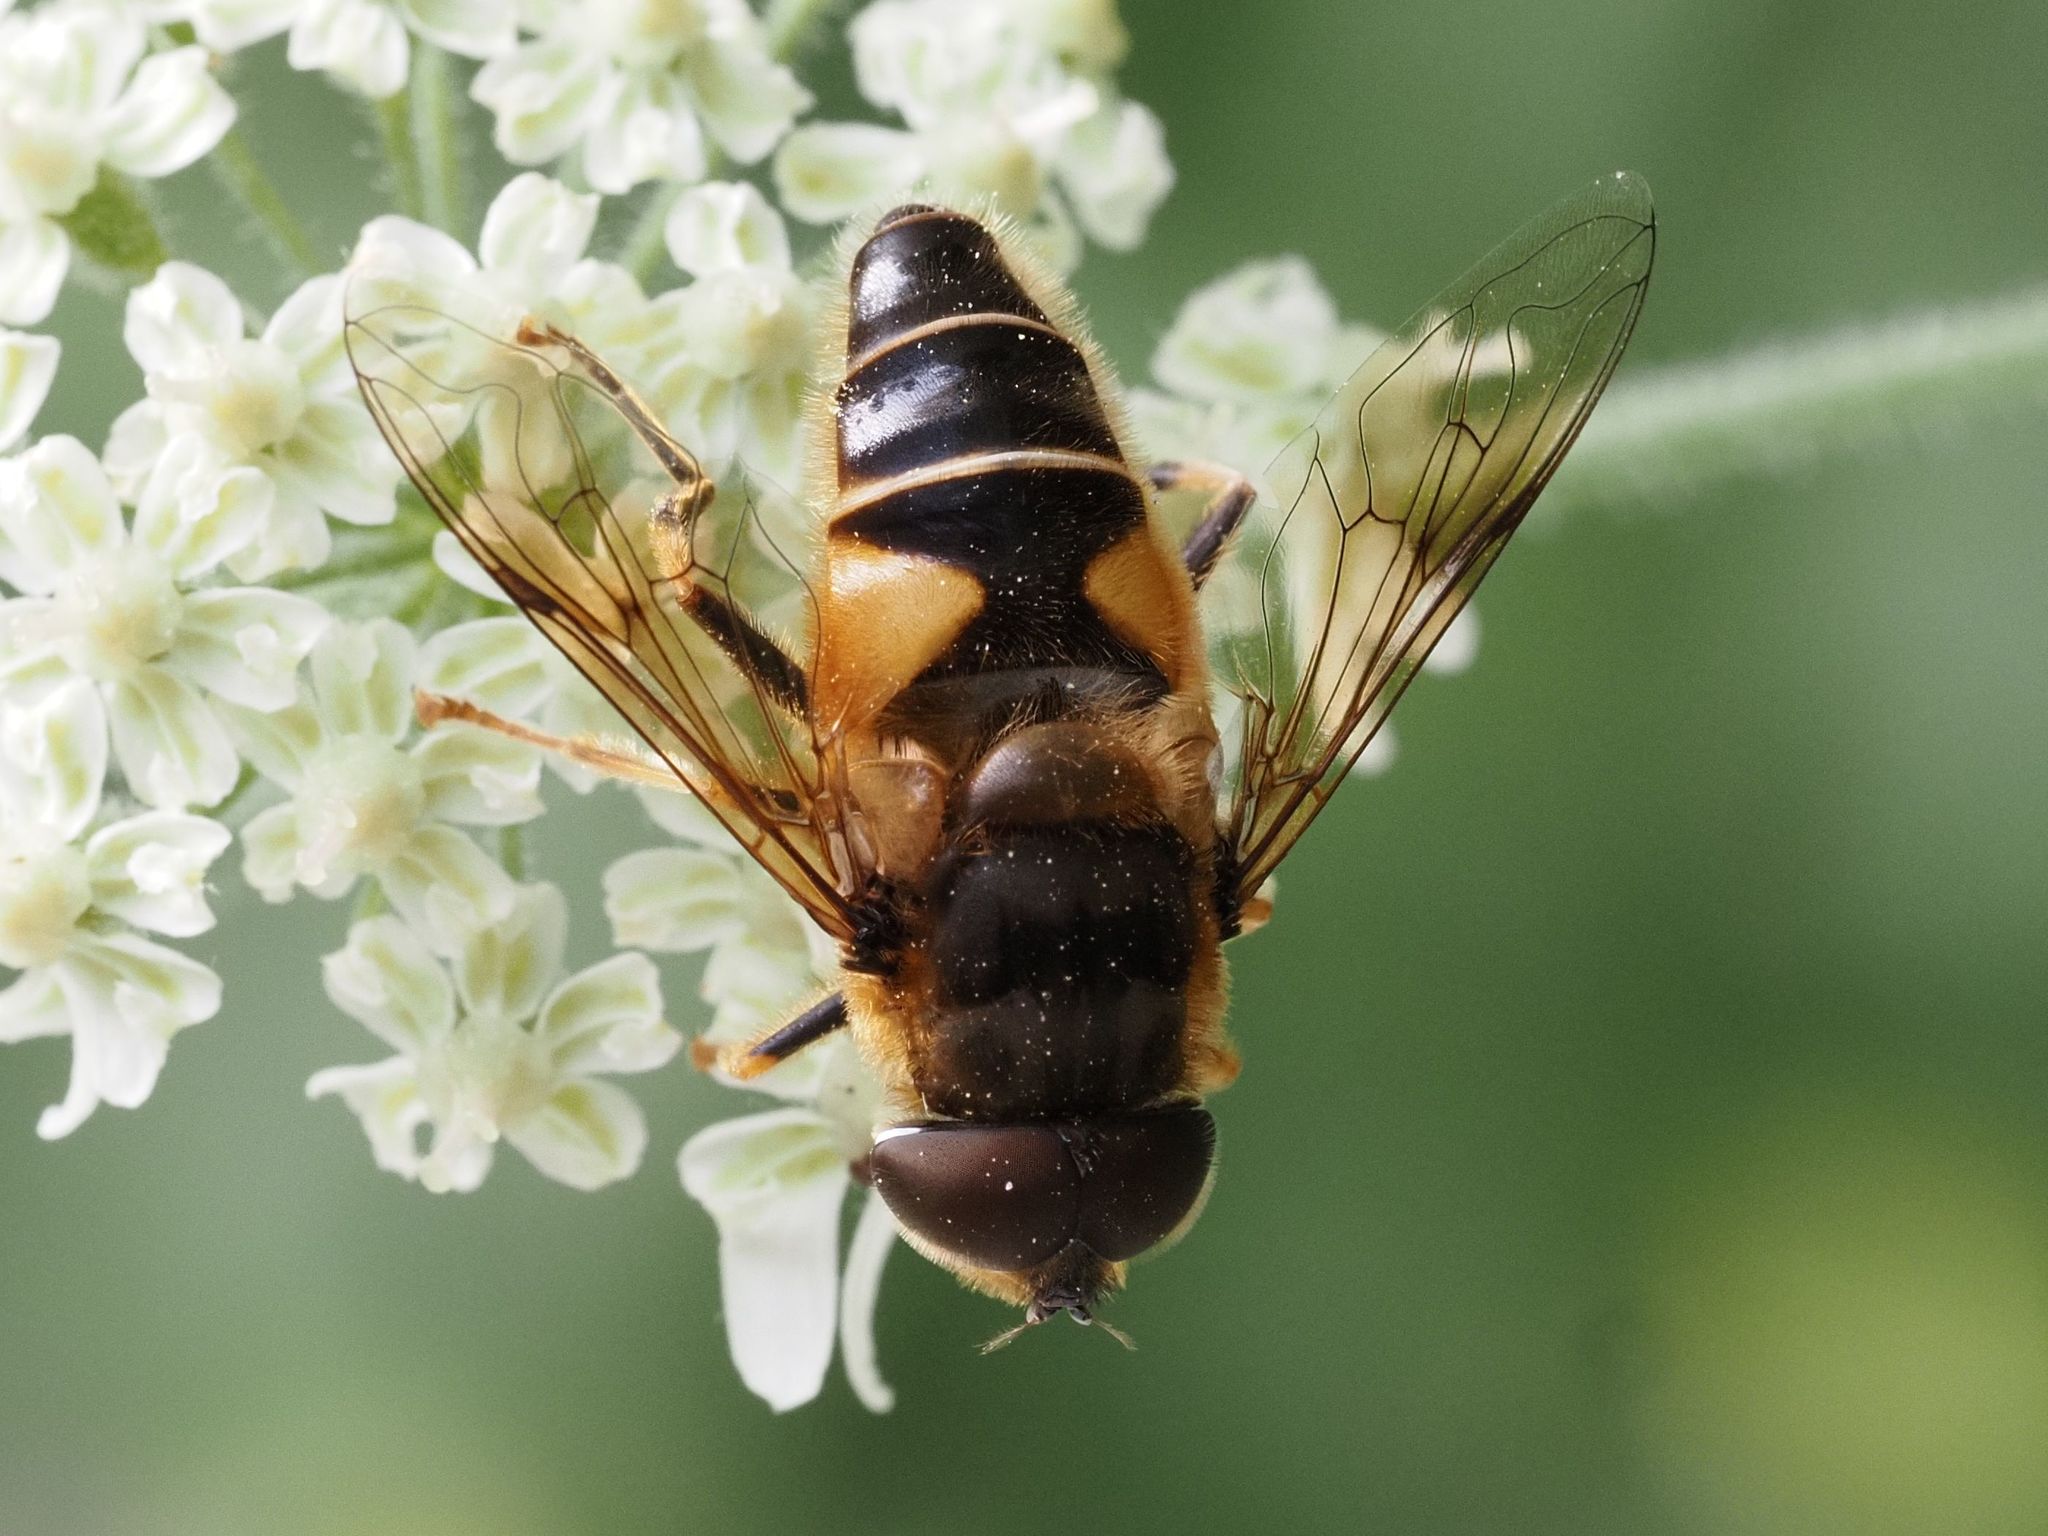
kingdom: Animalia
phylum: Arthropoda
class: Insecta
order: Diptera
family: Syrphidae
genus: Eristalis
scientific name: Eristalis pertinax
